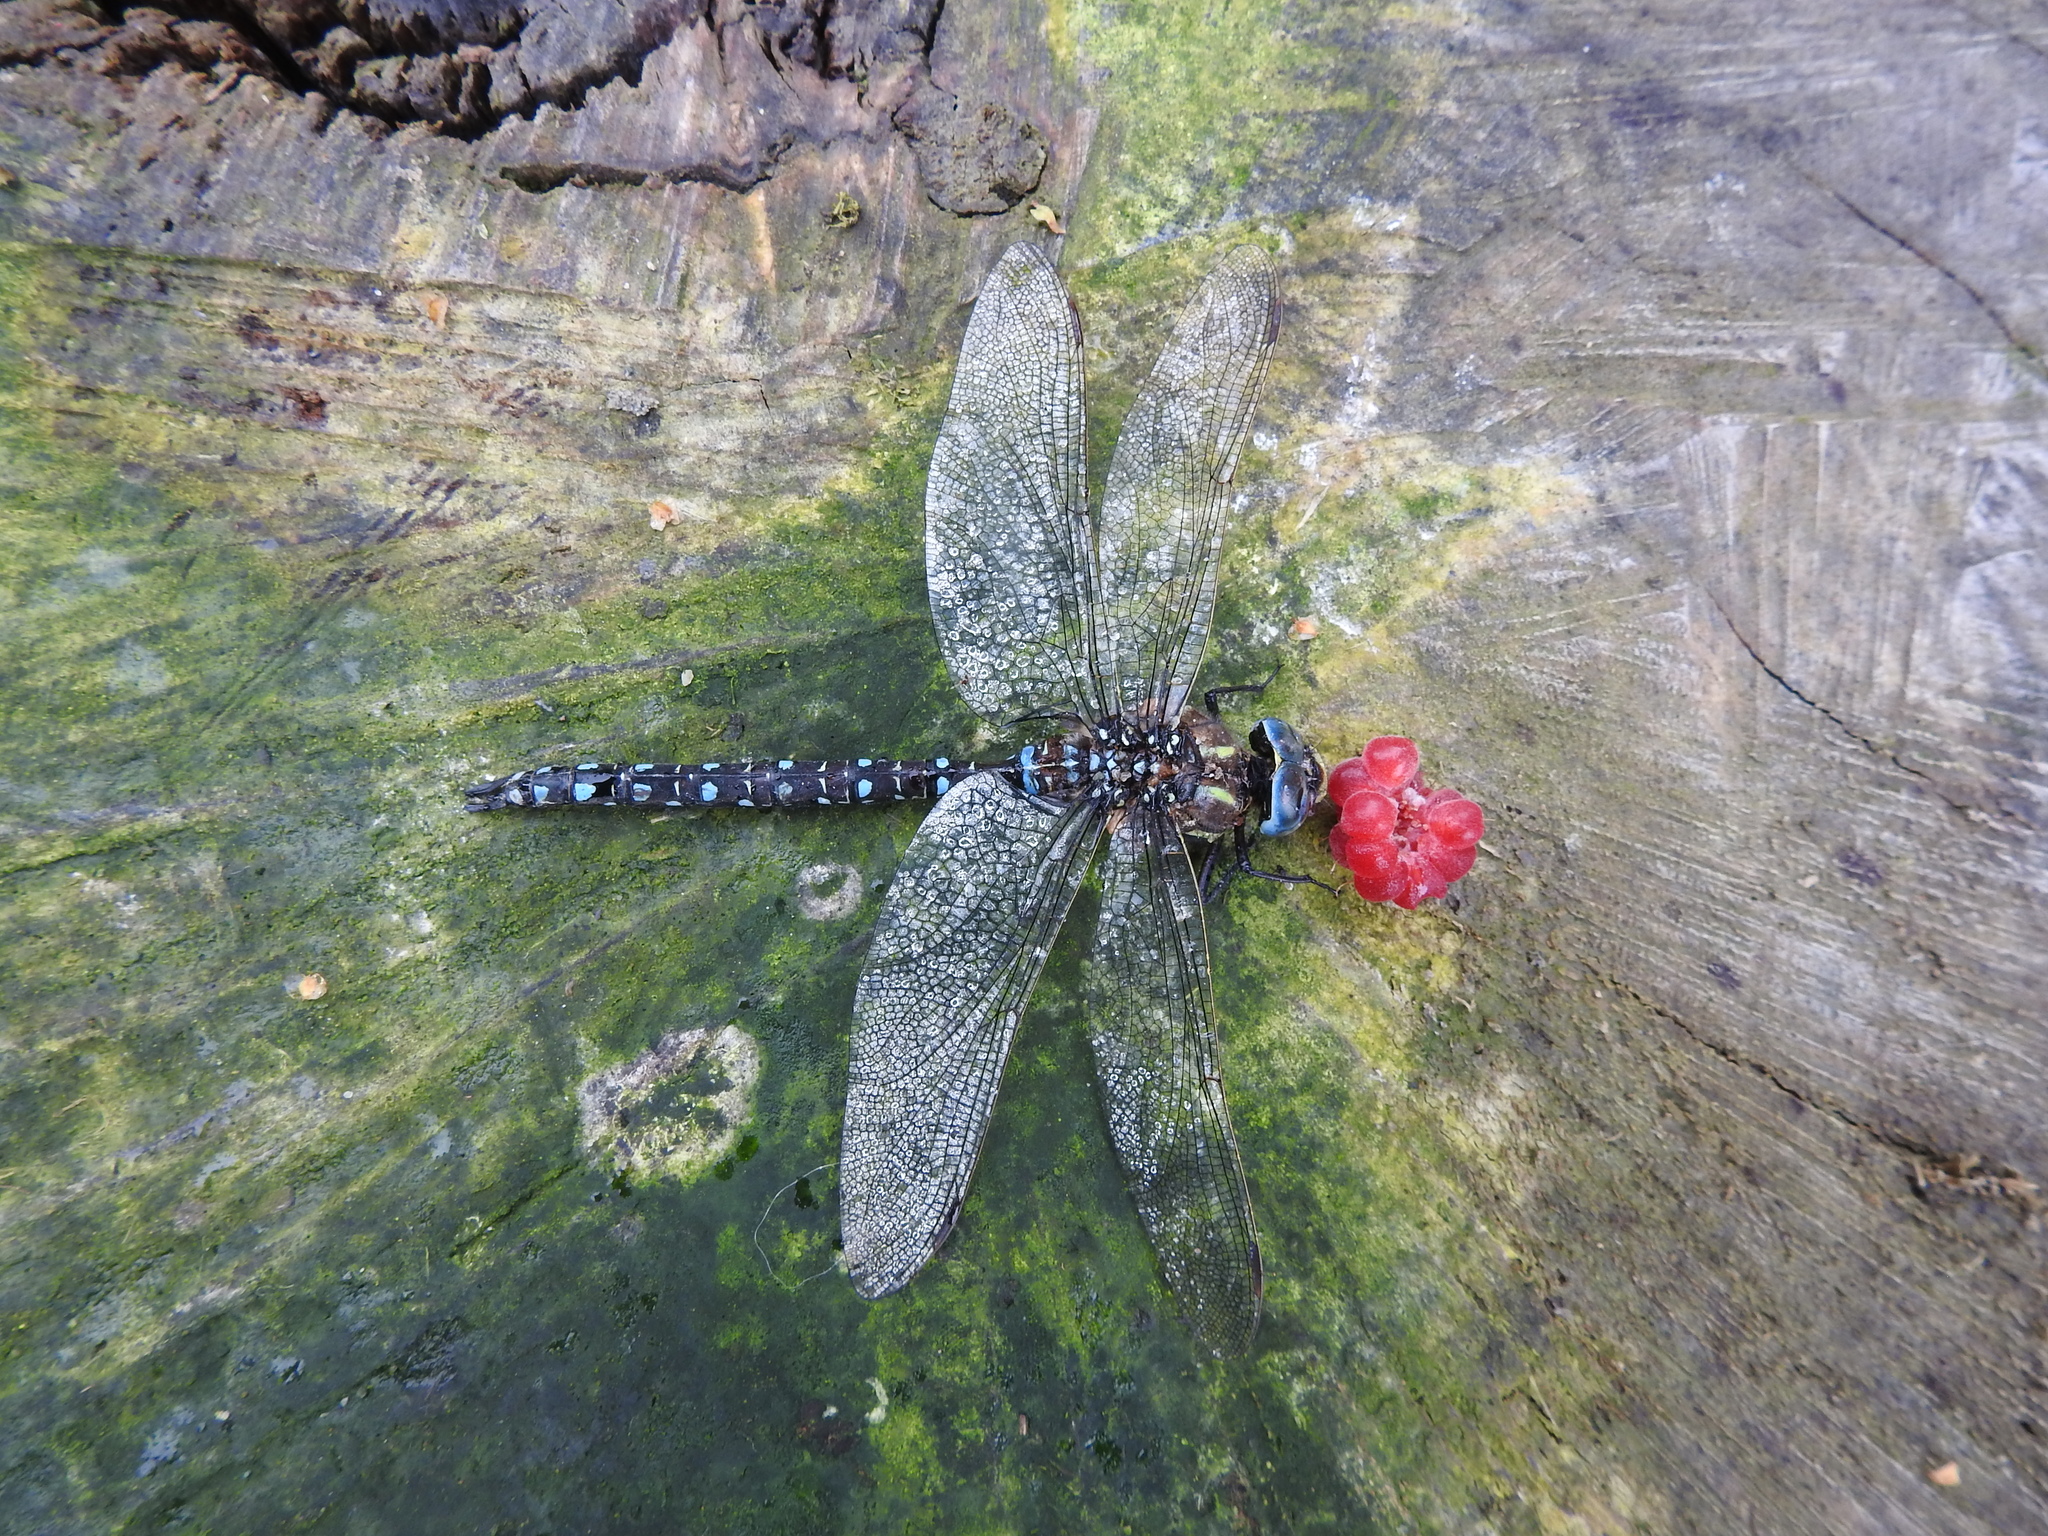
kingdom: Animalia
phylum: Arthropoda
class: Insecta
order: Odonata
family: Aeshnidae
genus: Aeshna
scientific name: Aeshna juncea
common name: Moorland hawker
